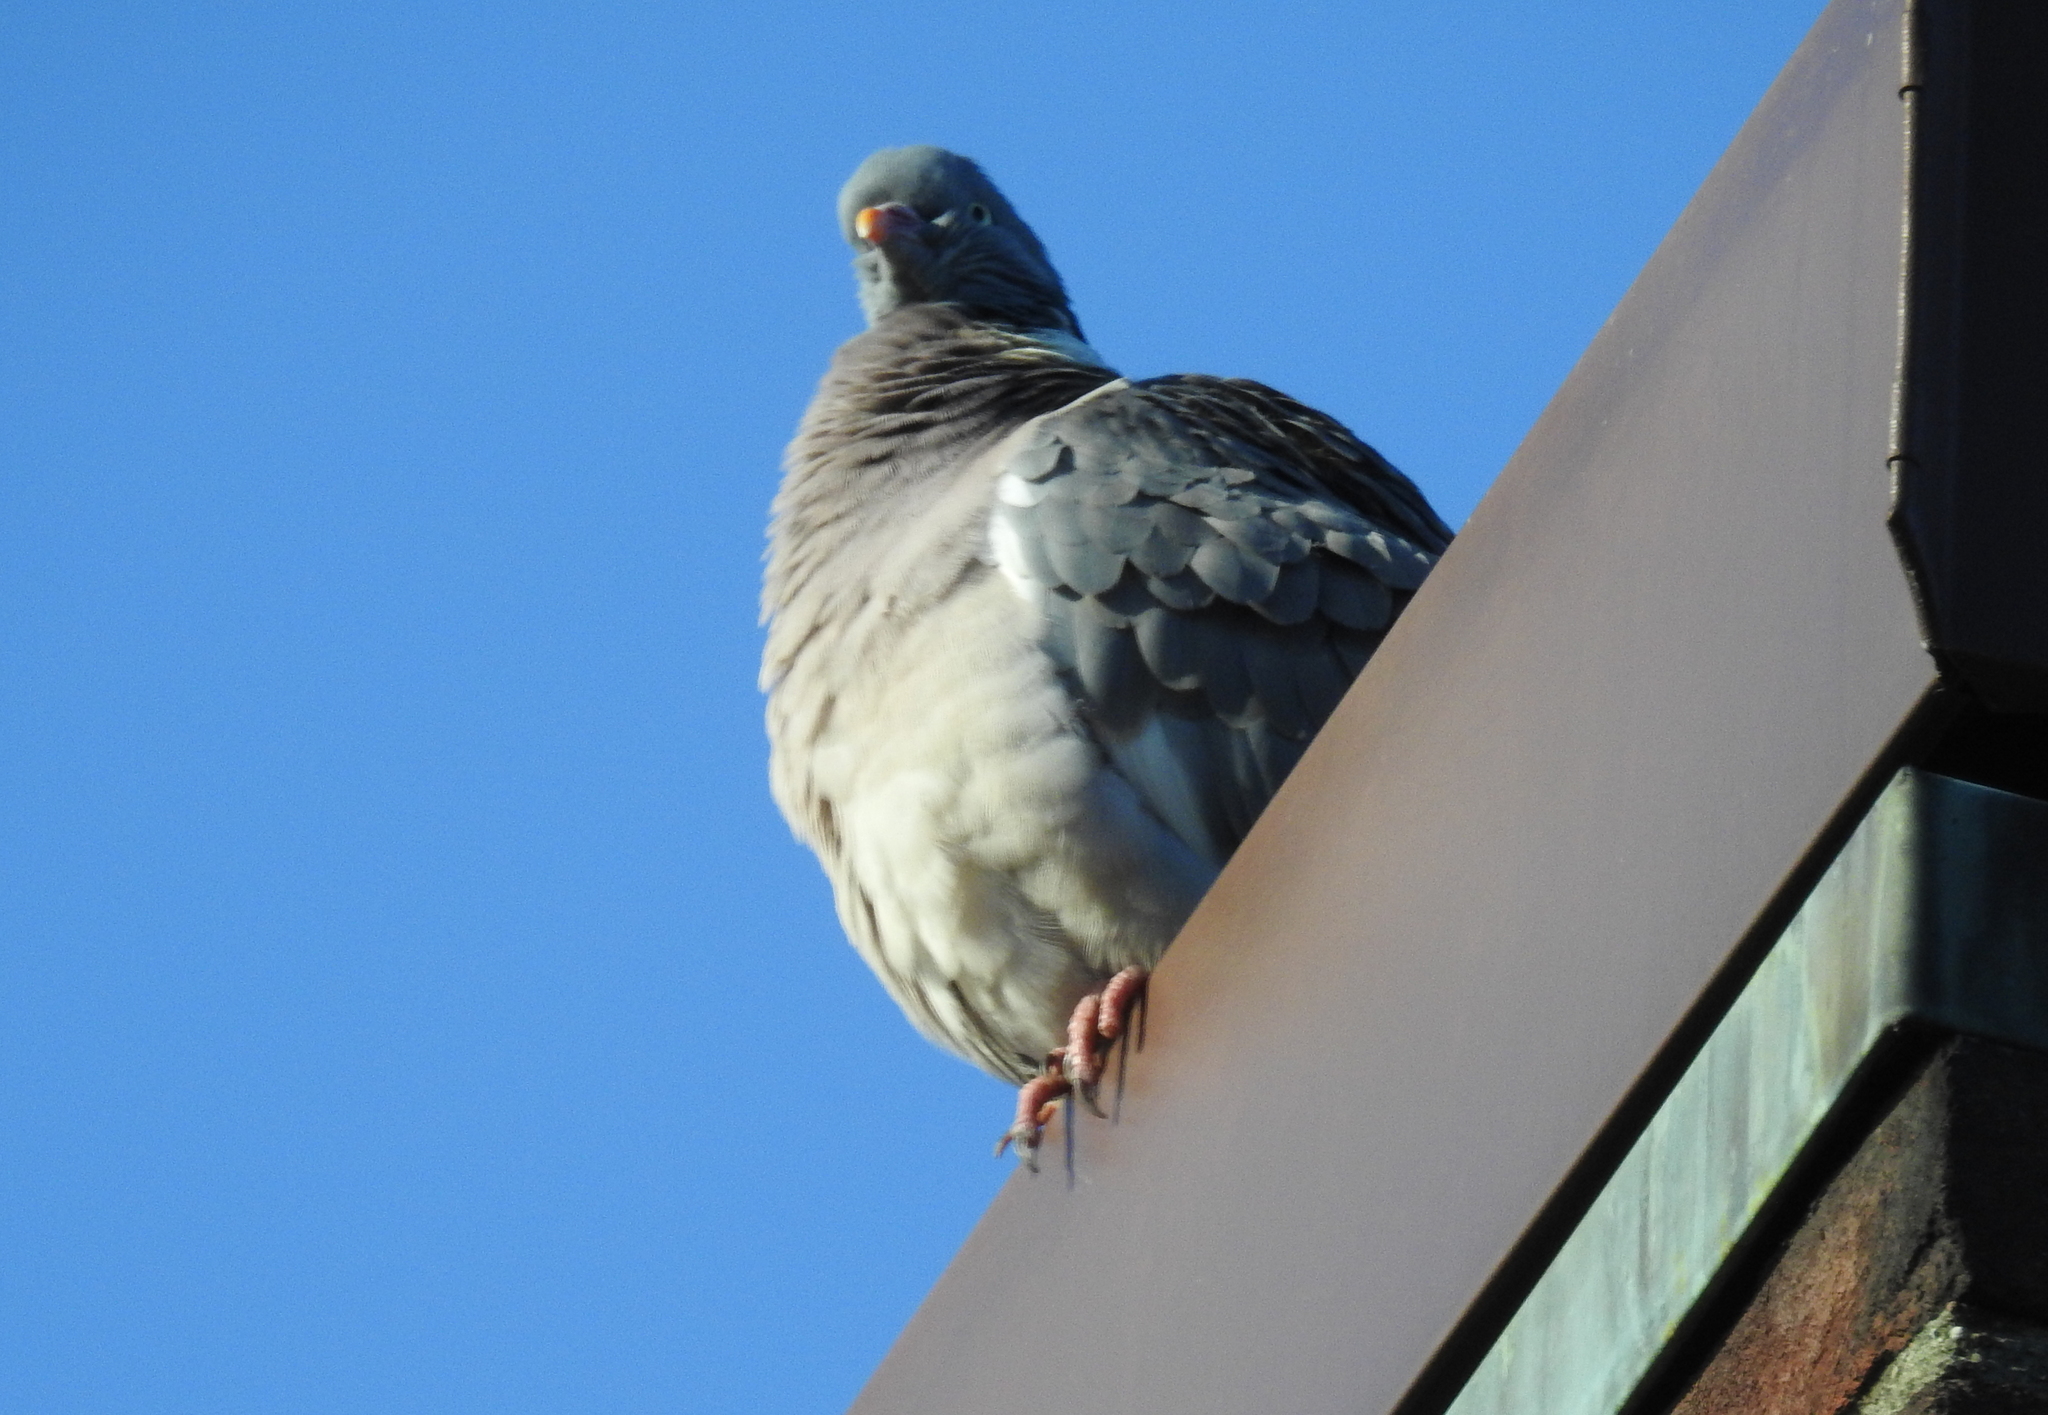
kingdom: Animalia
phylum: Chordata
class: Aves
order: Columbiformes
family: Columbidae
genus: Columba
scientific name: Columba palumbus
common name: Common wood pigeon
